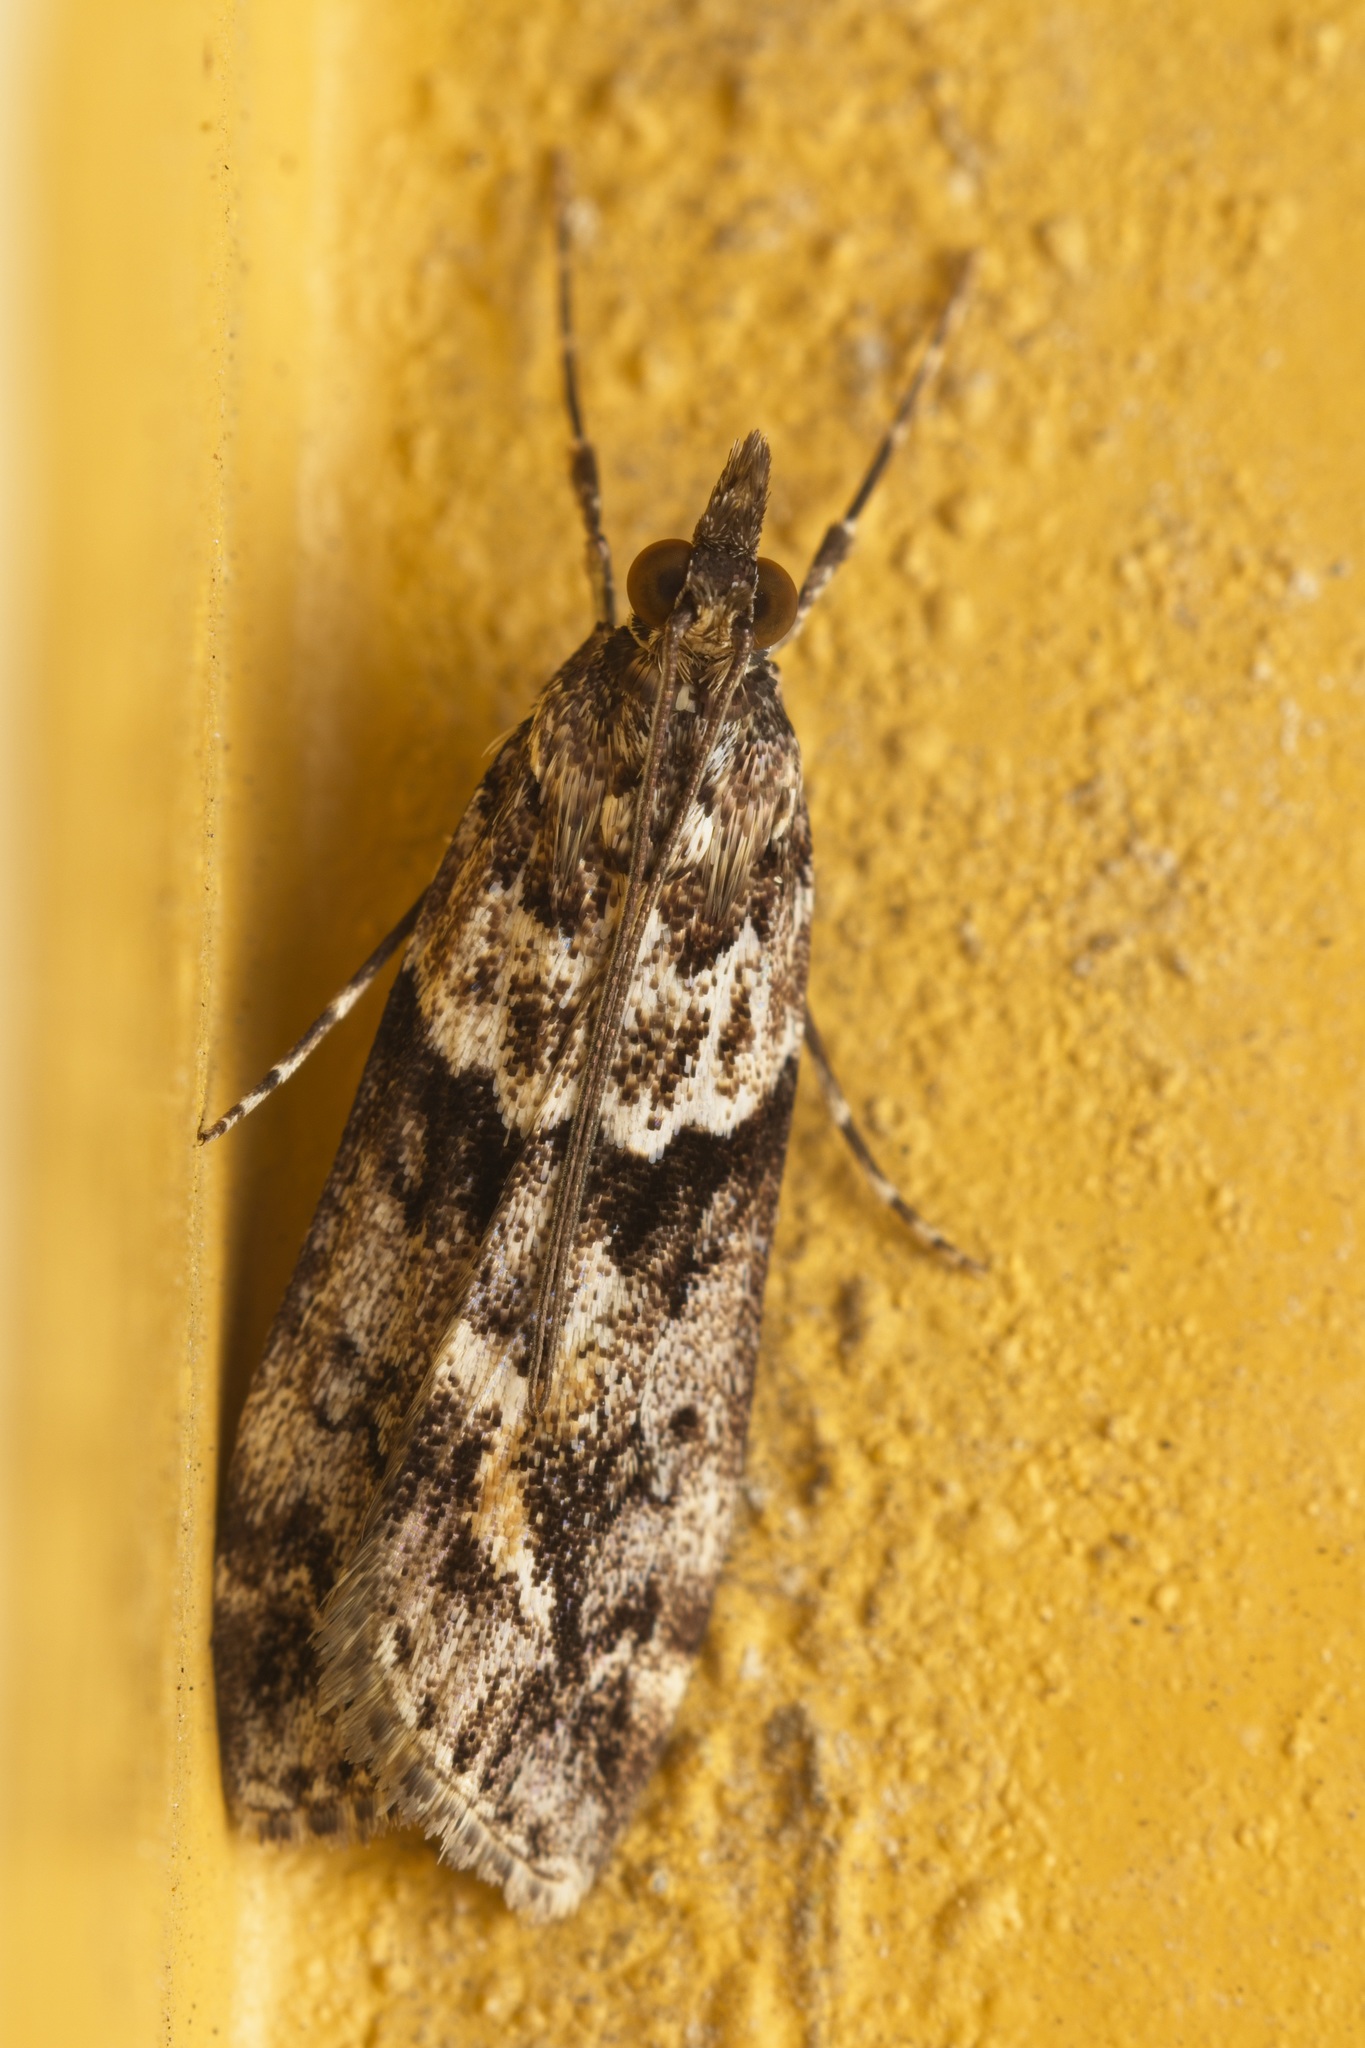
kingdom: Animalia
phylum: Arthropoda
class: Insecta
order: Lepidoptera
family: Crambidae
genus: Eudonia
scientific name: Eudonia submarginalis
